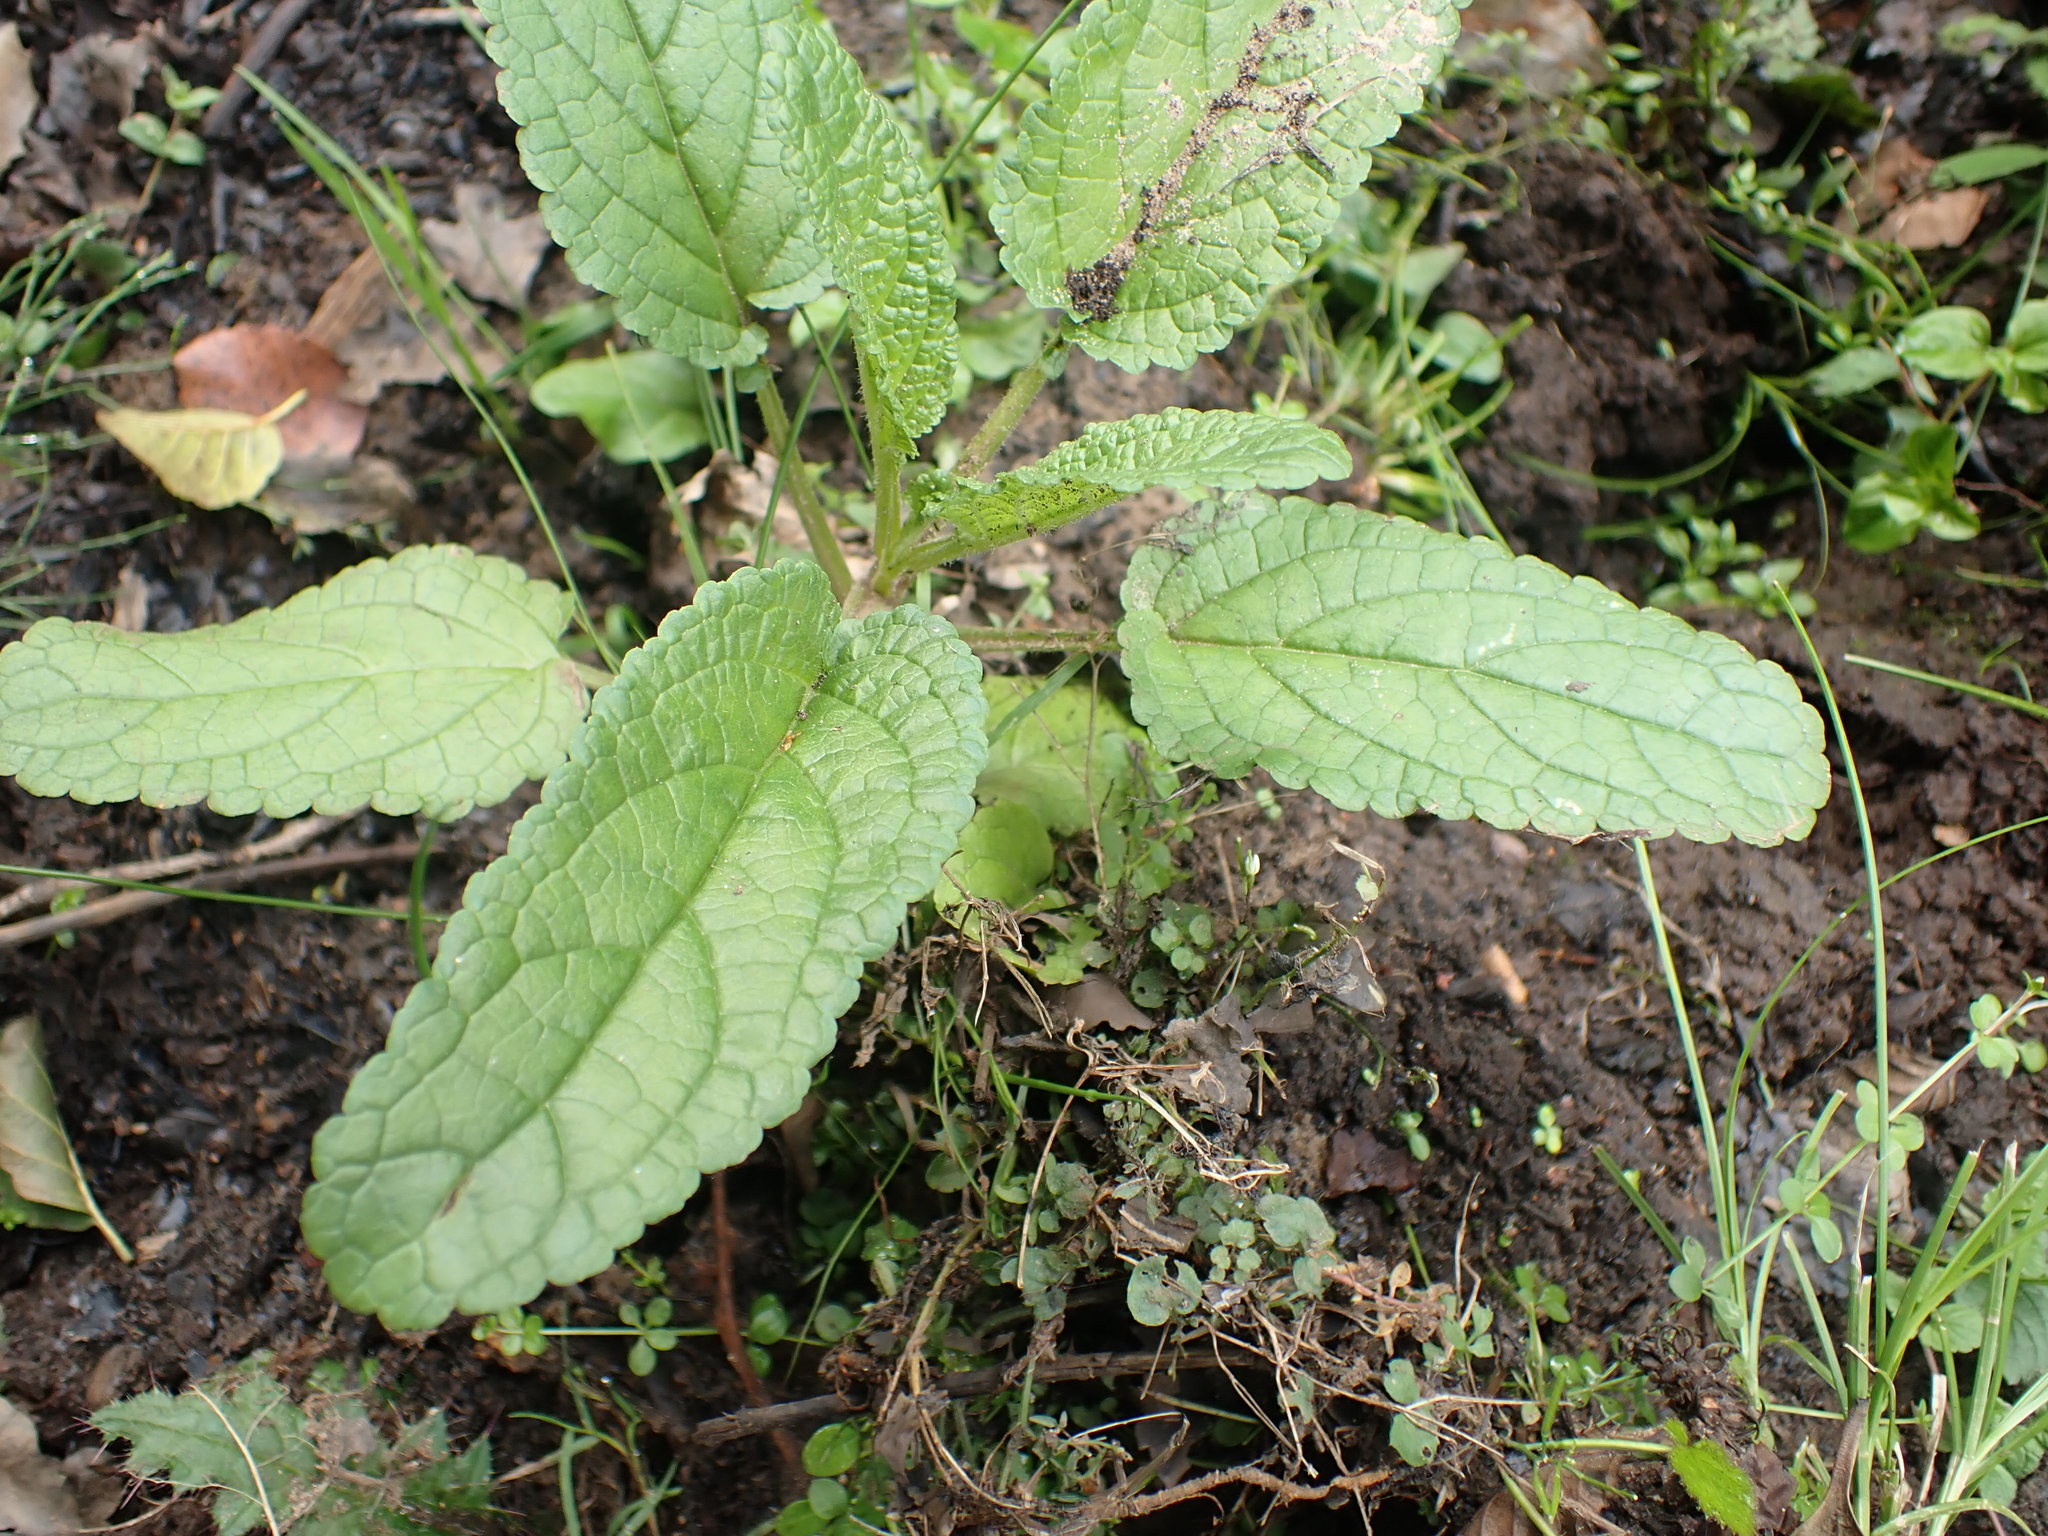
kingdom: Plantae
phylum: Tracheophyta
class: Magnoliopsida
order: Lamiales
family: Scrophulariaceae
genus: Scrophularia
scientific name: Scrophularia auriculata
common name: Water betony
